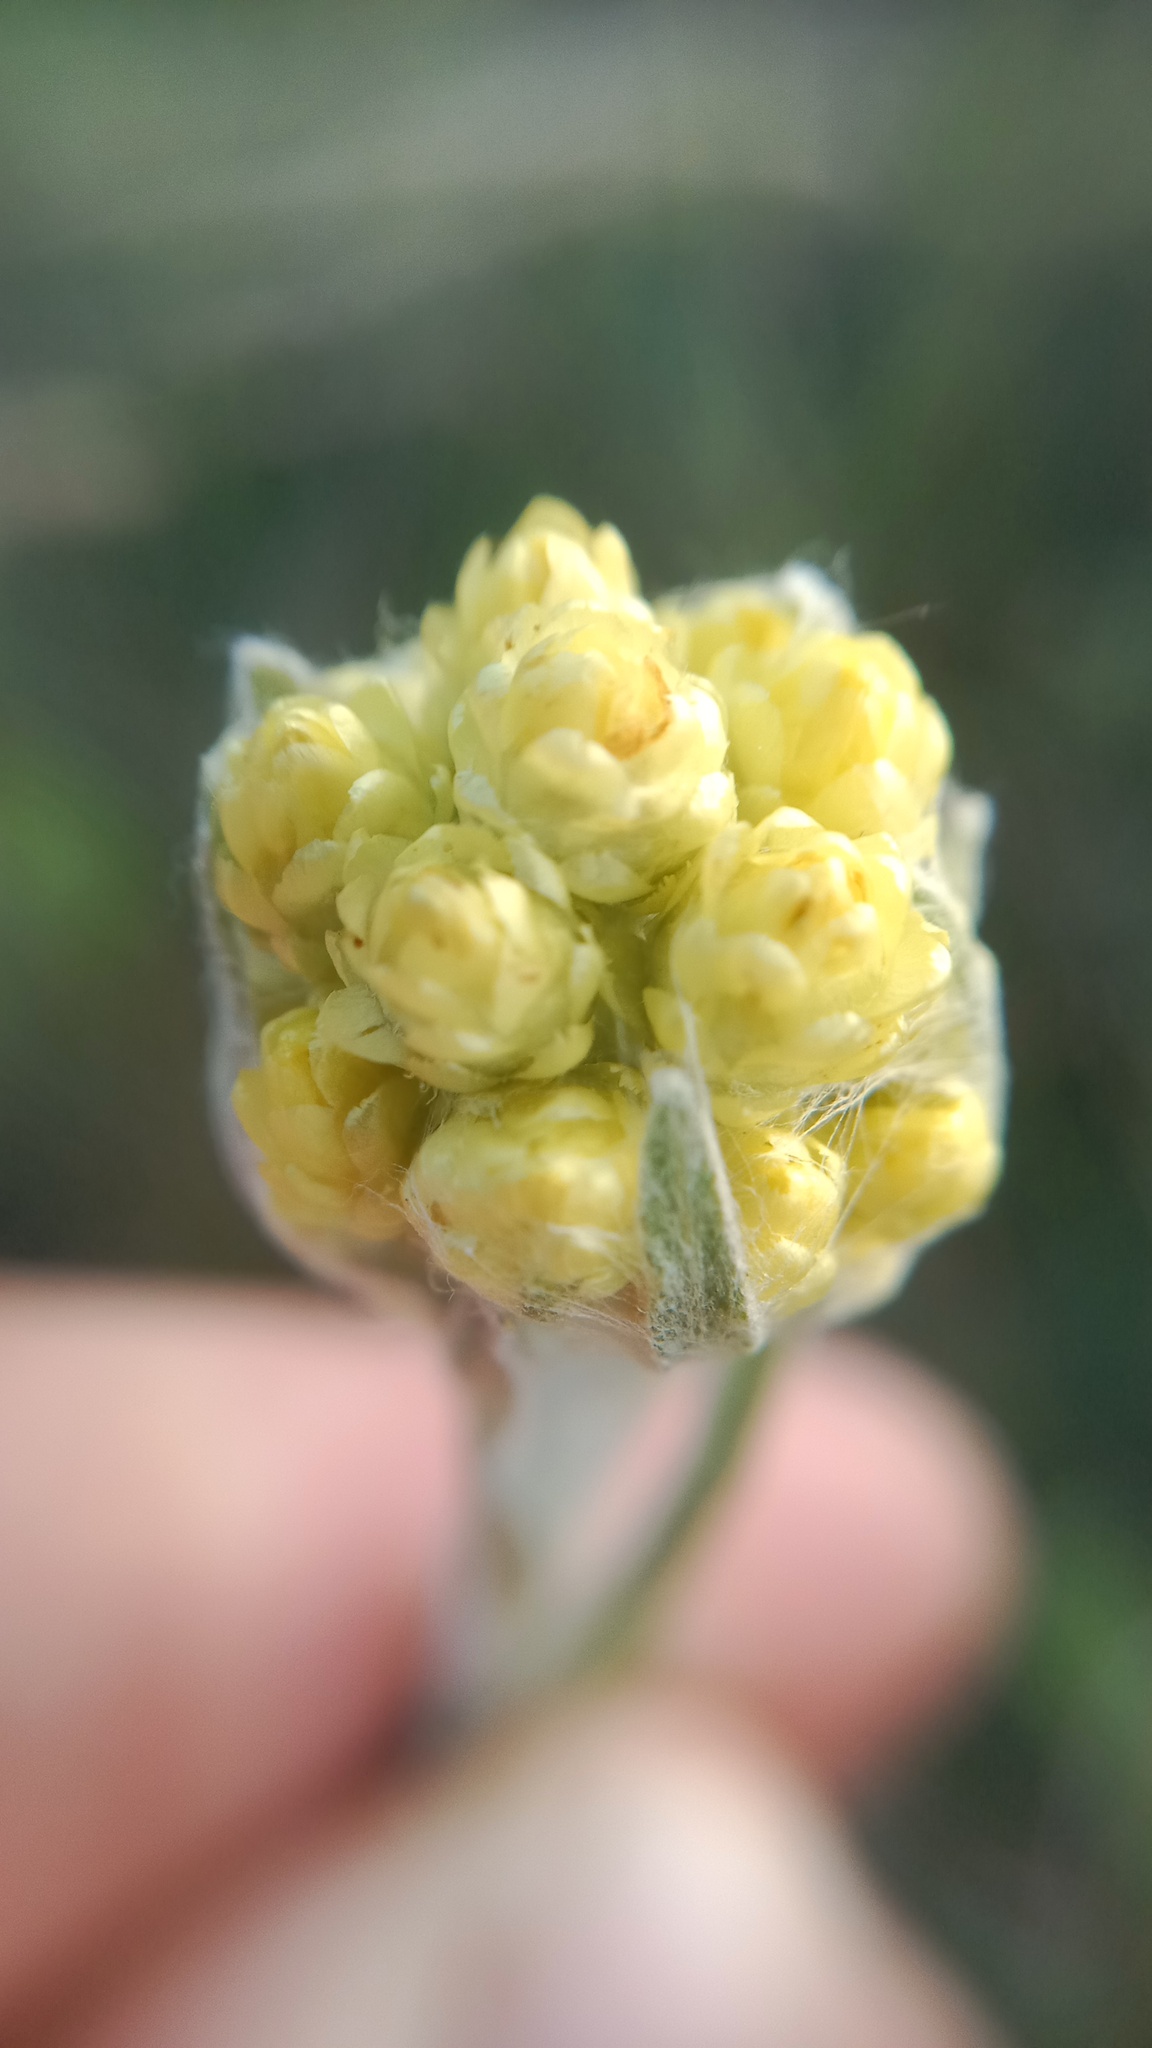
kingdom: Plantae
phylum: Tracheophyta
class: Magnoliopsida
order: Asterales
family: Asteraceae
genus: Helichrysum
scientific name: Helichrysum arenarium
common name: Strawflower
